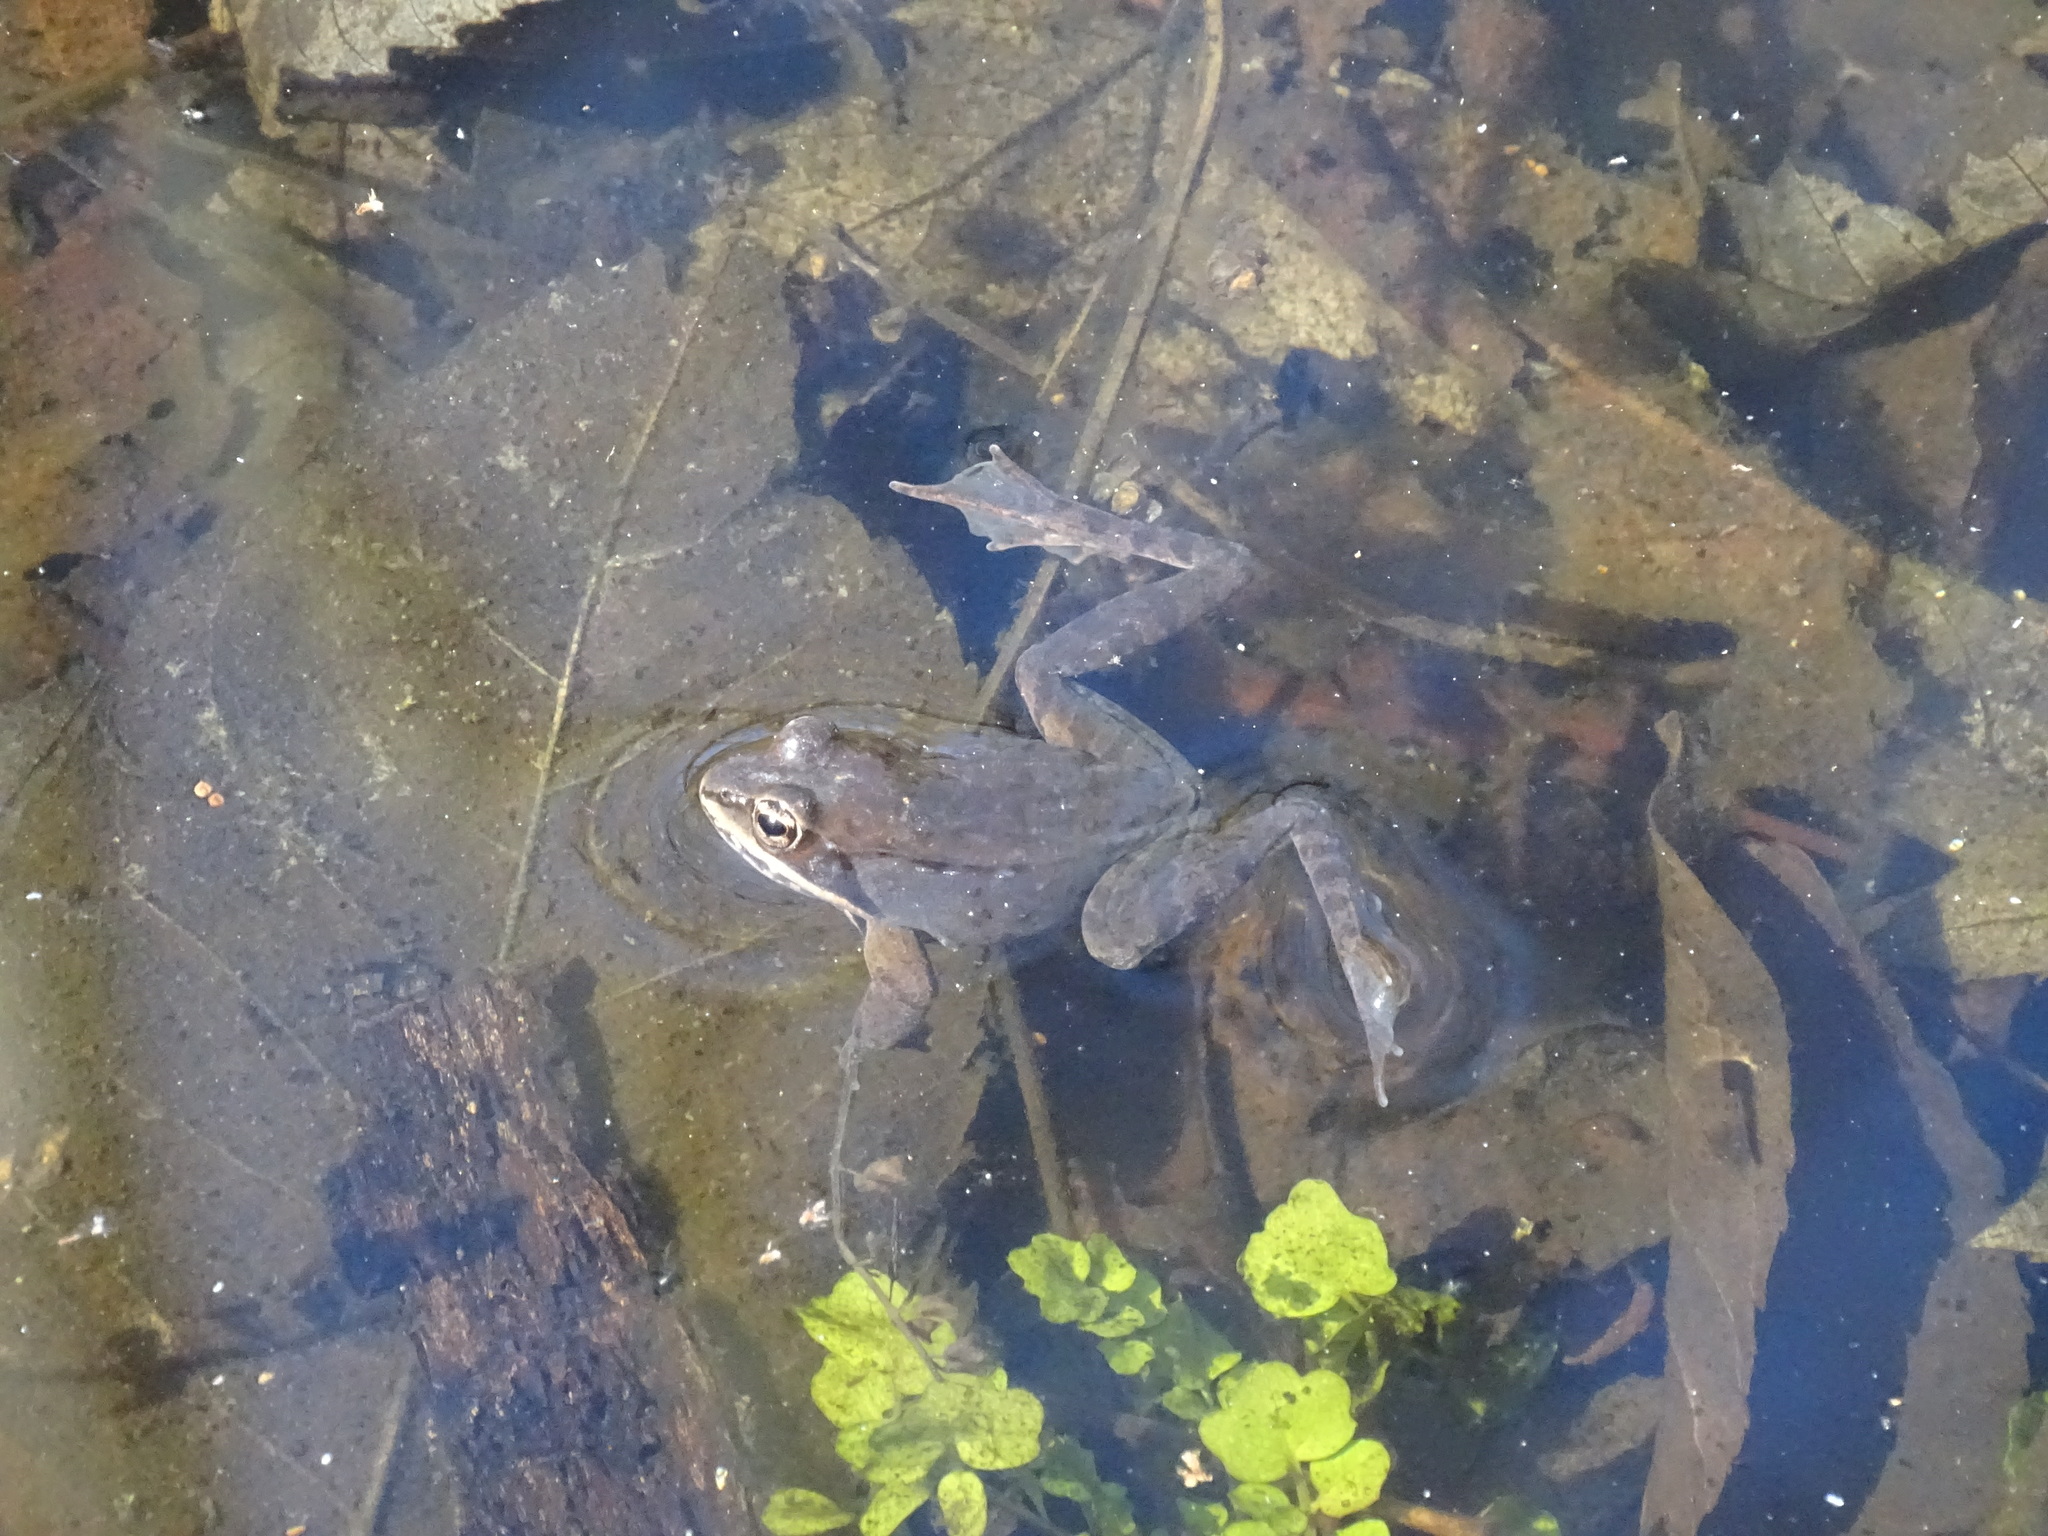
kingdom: Animalia
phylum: Chordata
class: Amphibia
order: Anura
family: Ranidae
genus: Lithobates
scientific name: Lithobates sylvaticus
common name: Wood frog
